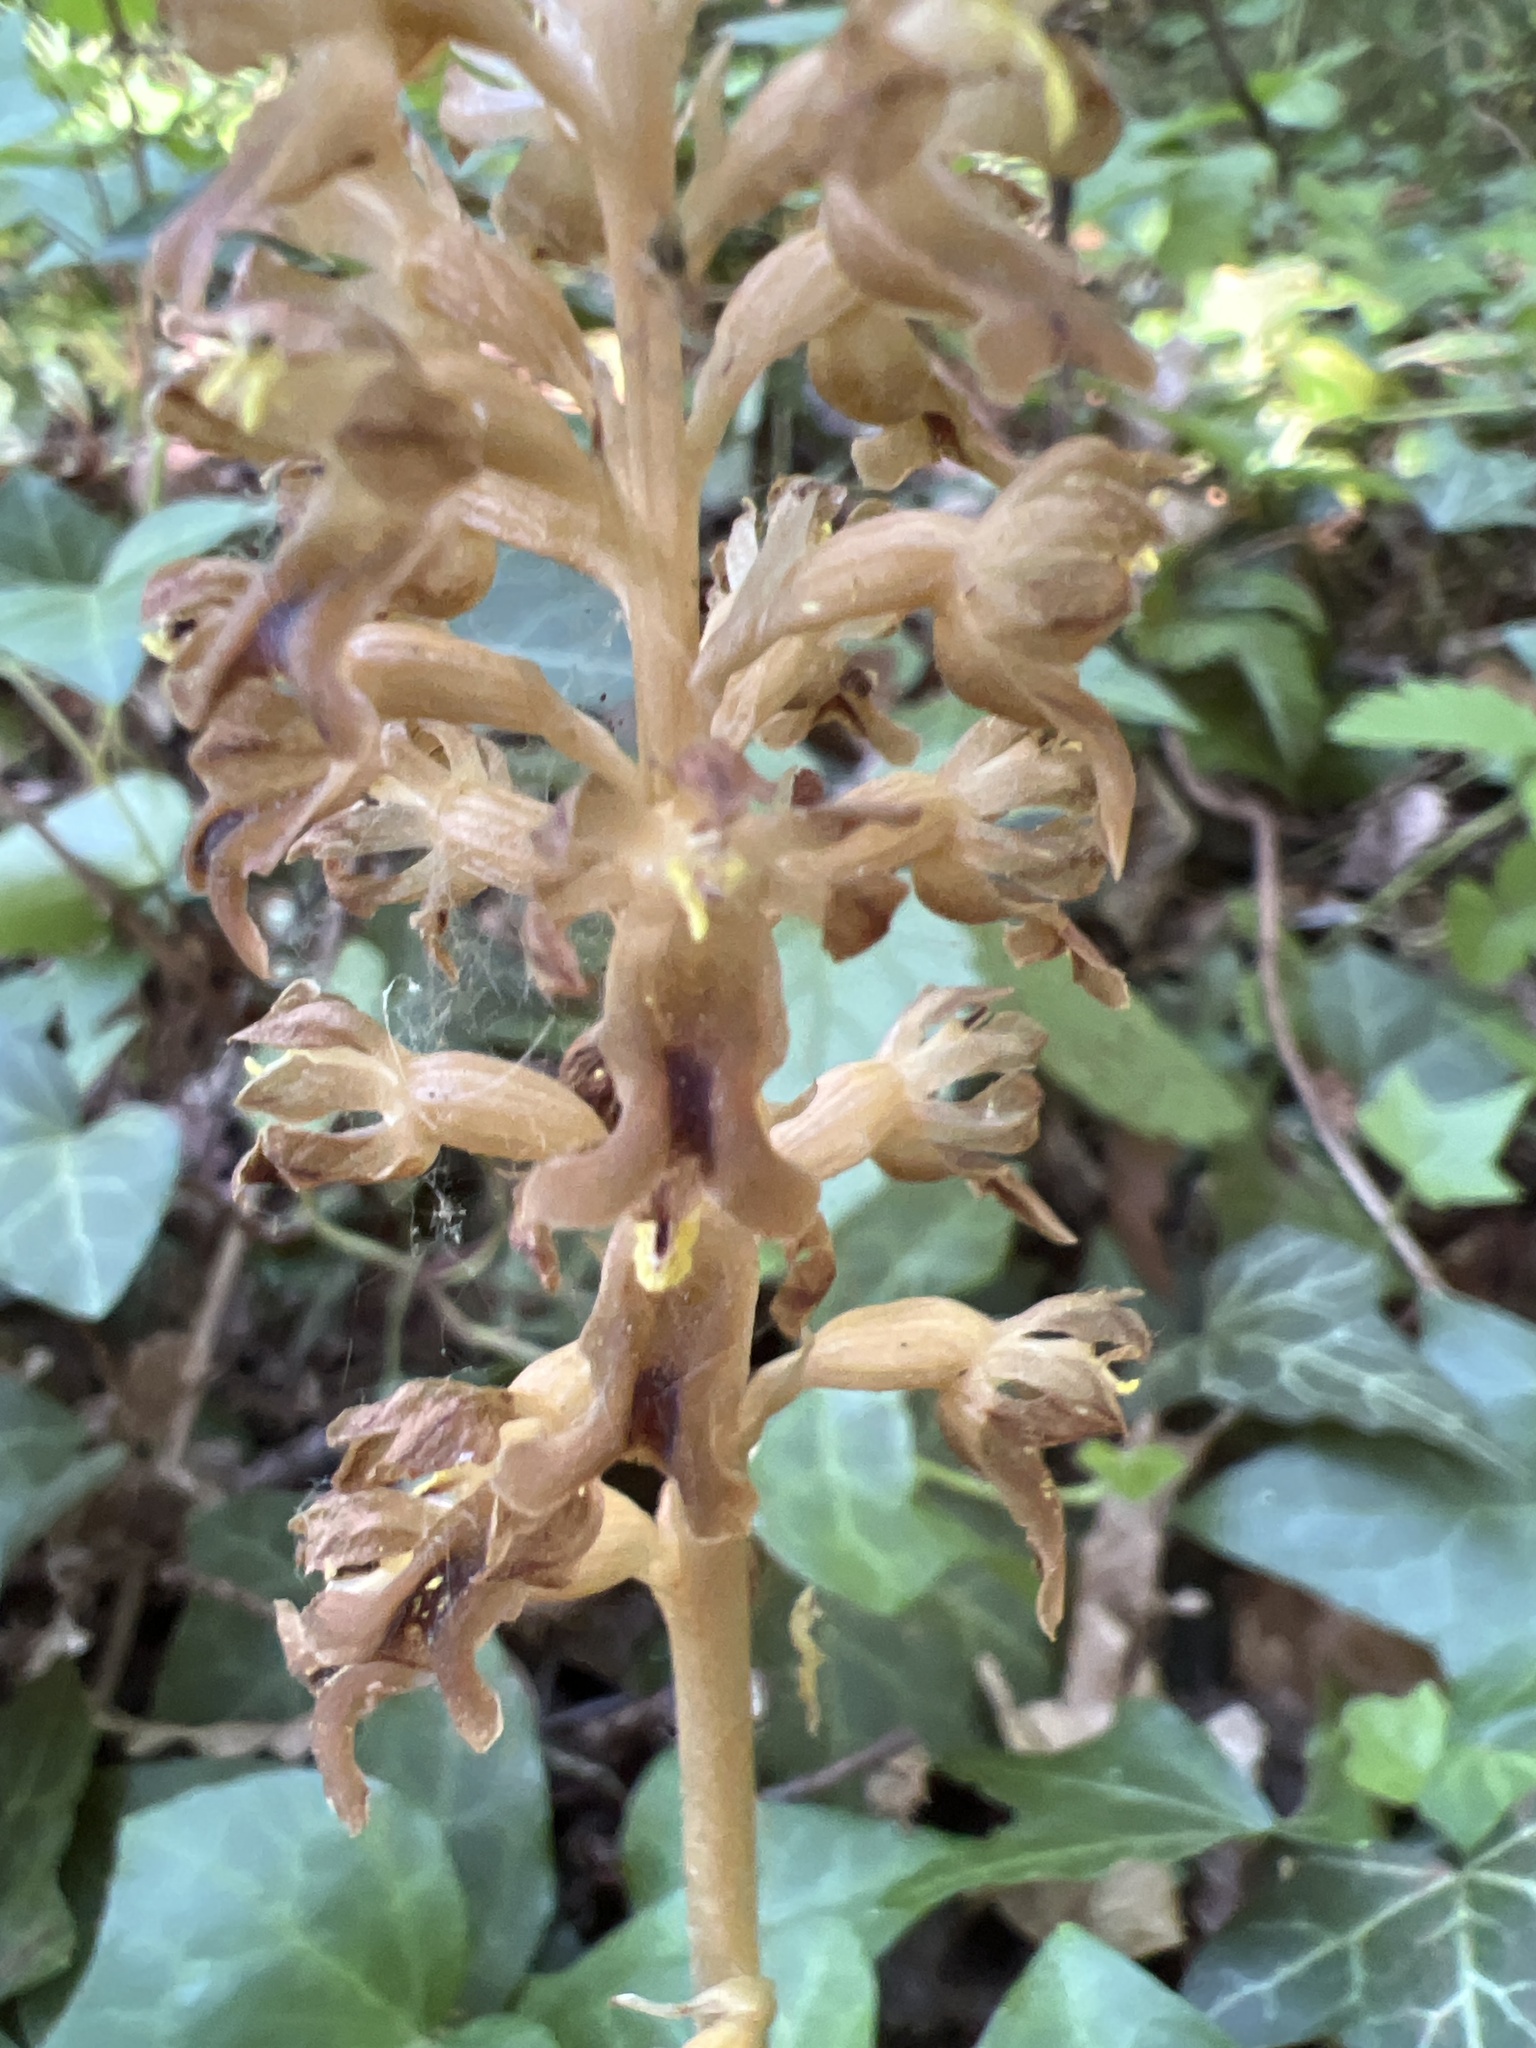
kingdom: Plantae
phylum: Tracheophyta
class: Liliopsida
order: Asparagales
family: Orchidaceae
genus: Neottia
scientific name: Neottia nidus-avis
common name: Bird's-nest orchid
